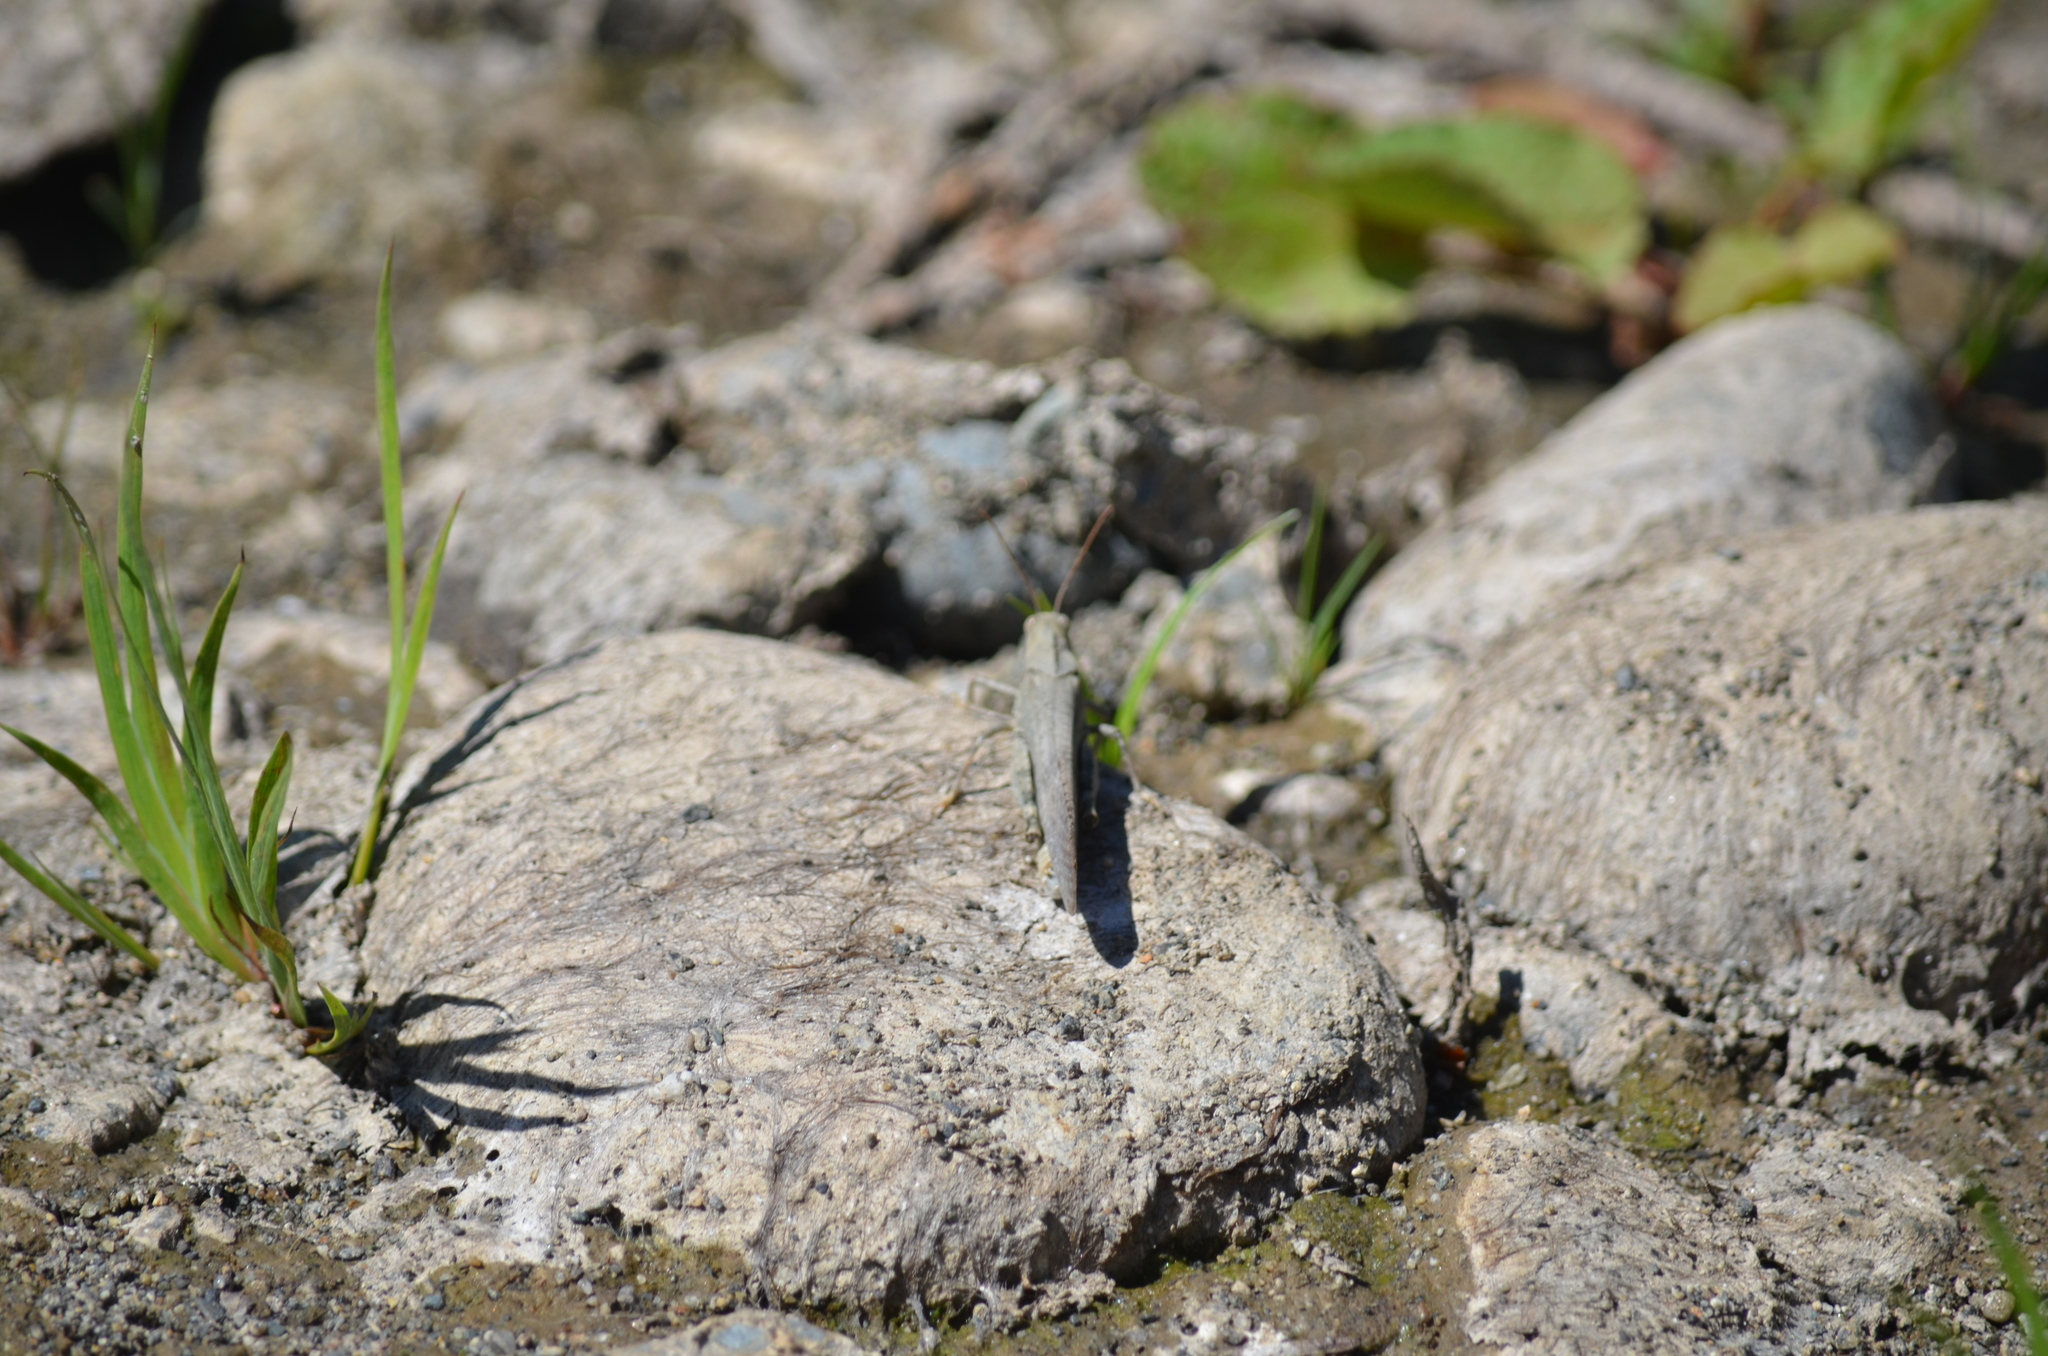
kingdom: Animalia
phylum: Arthropoda
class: Insecta
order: Orthoptera
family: Acrididae
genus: Dissosteira
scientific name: Dissosteira carolina
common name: Carolina grasshopper
